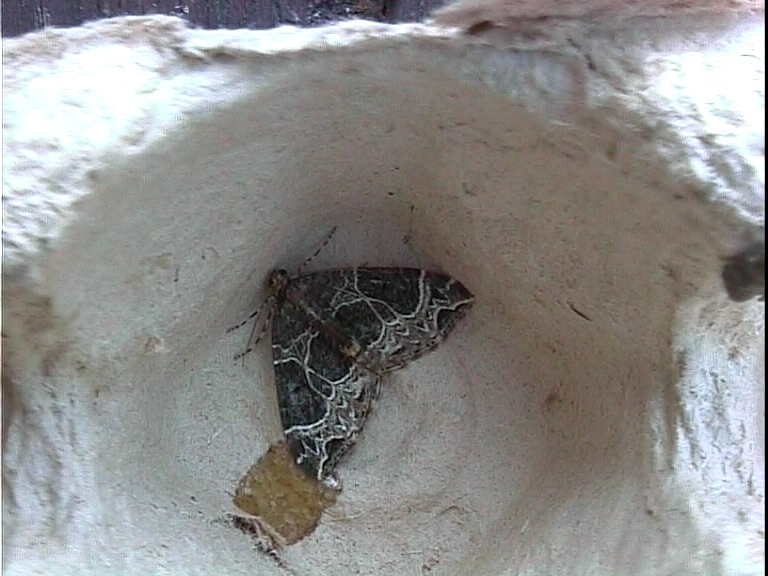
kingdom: Animalia
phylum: Arthropoda
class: Insecta
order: Lepidoptera
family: Geometridae
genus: Ecliptopera
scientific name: Ecliptopera silaceata
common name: Small phoenix
